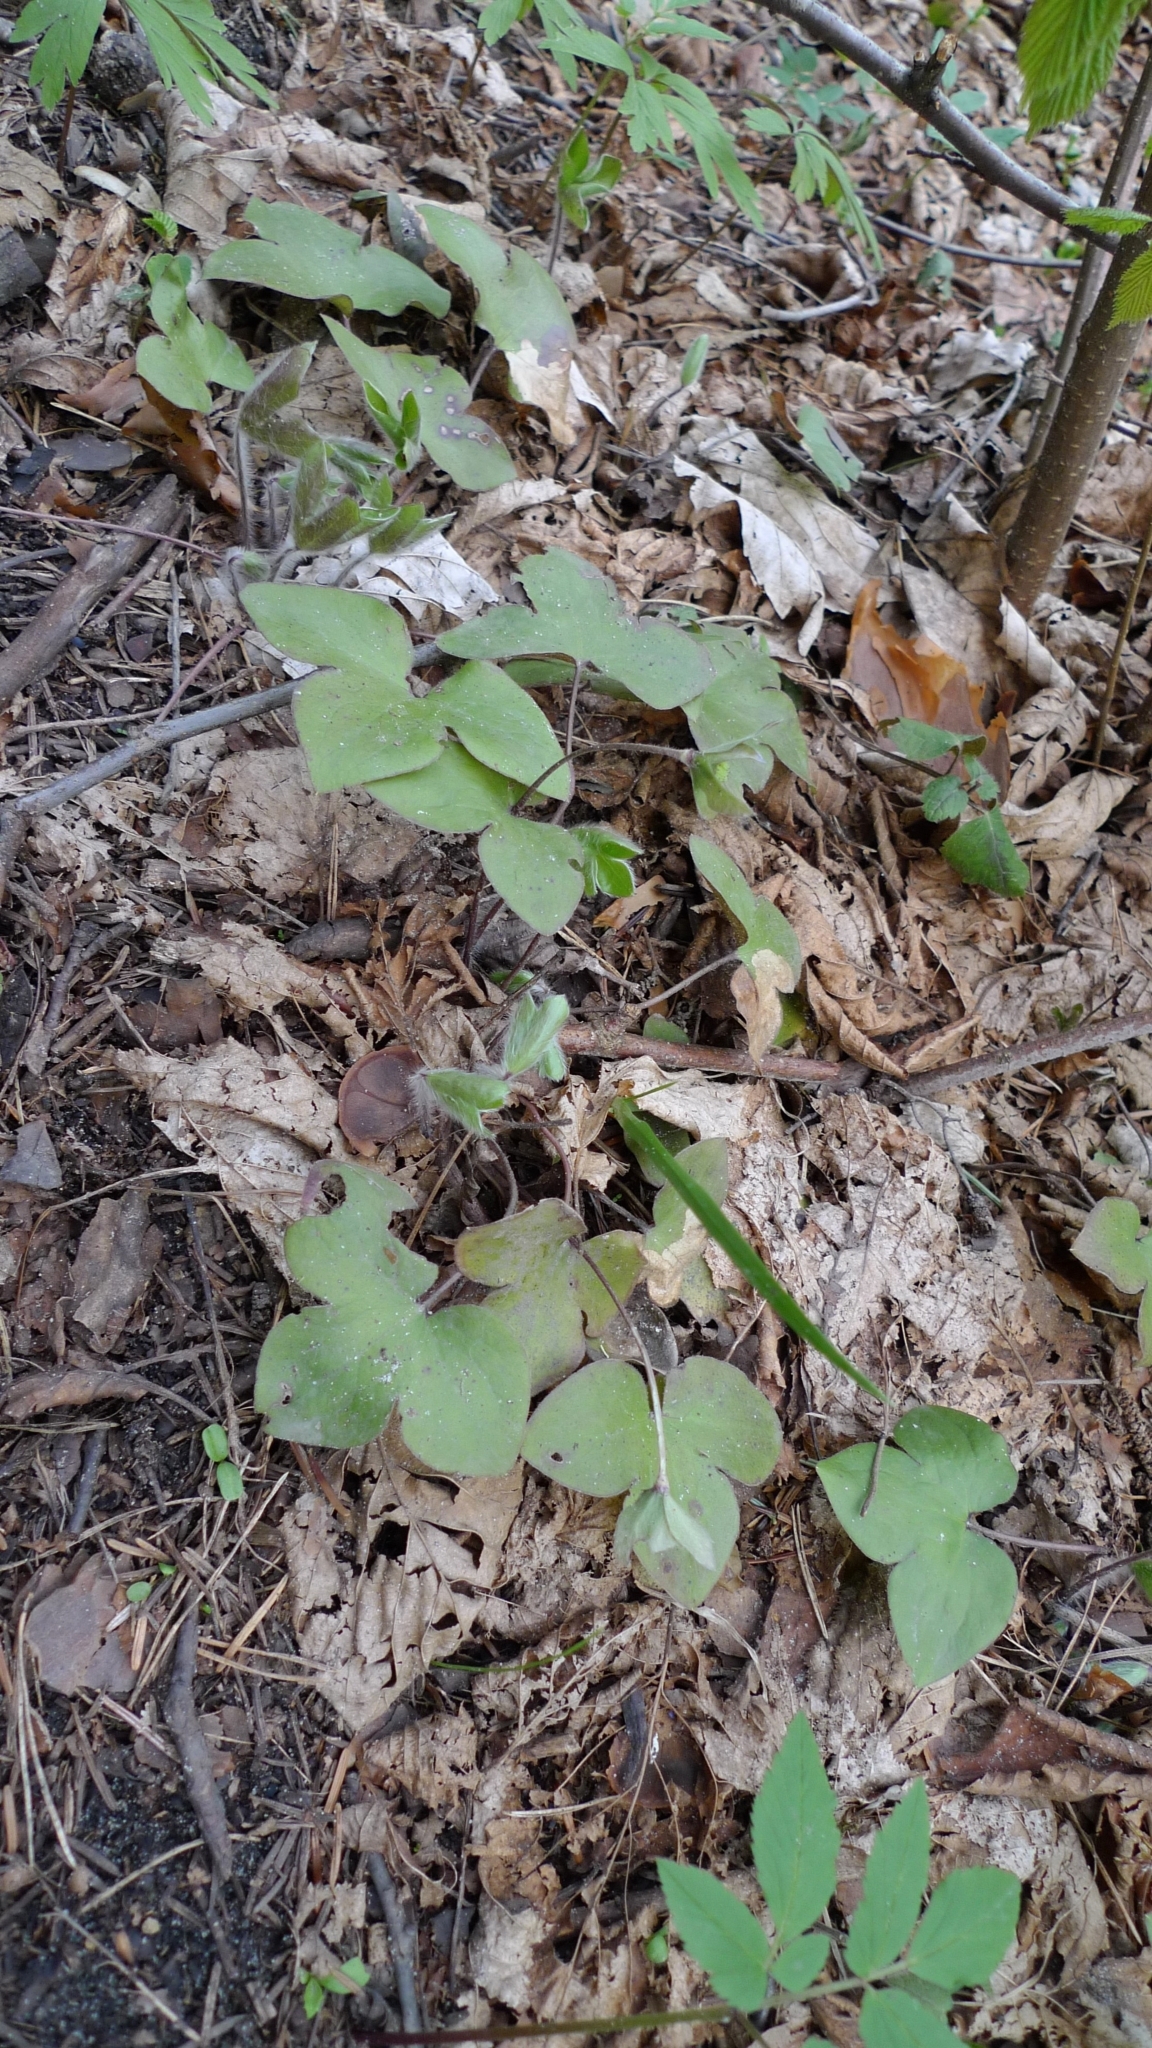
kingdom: Plantae
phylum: Tracheophyta
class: Magnoliopsida
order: Ranunculales
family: Ranunculaceae
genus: Hepatica
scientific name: Hepatica nobilis
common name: Liverleaf
